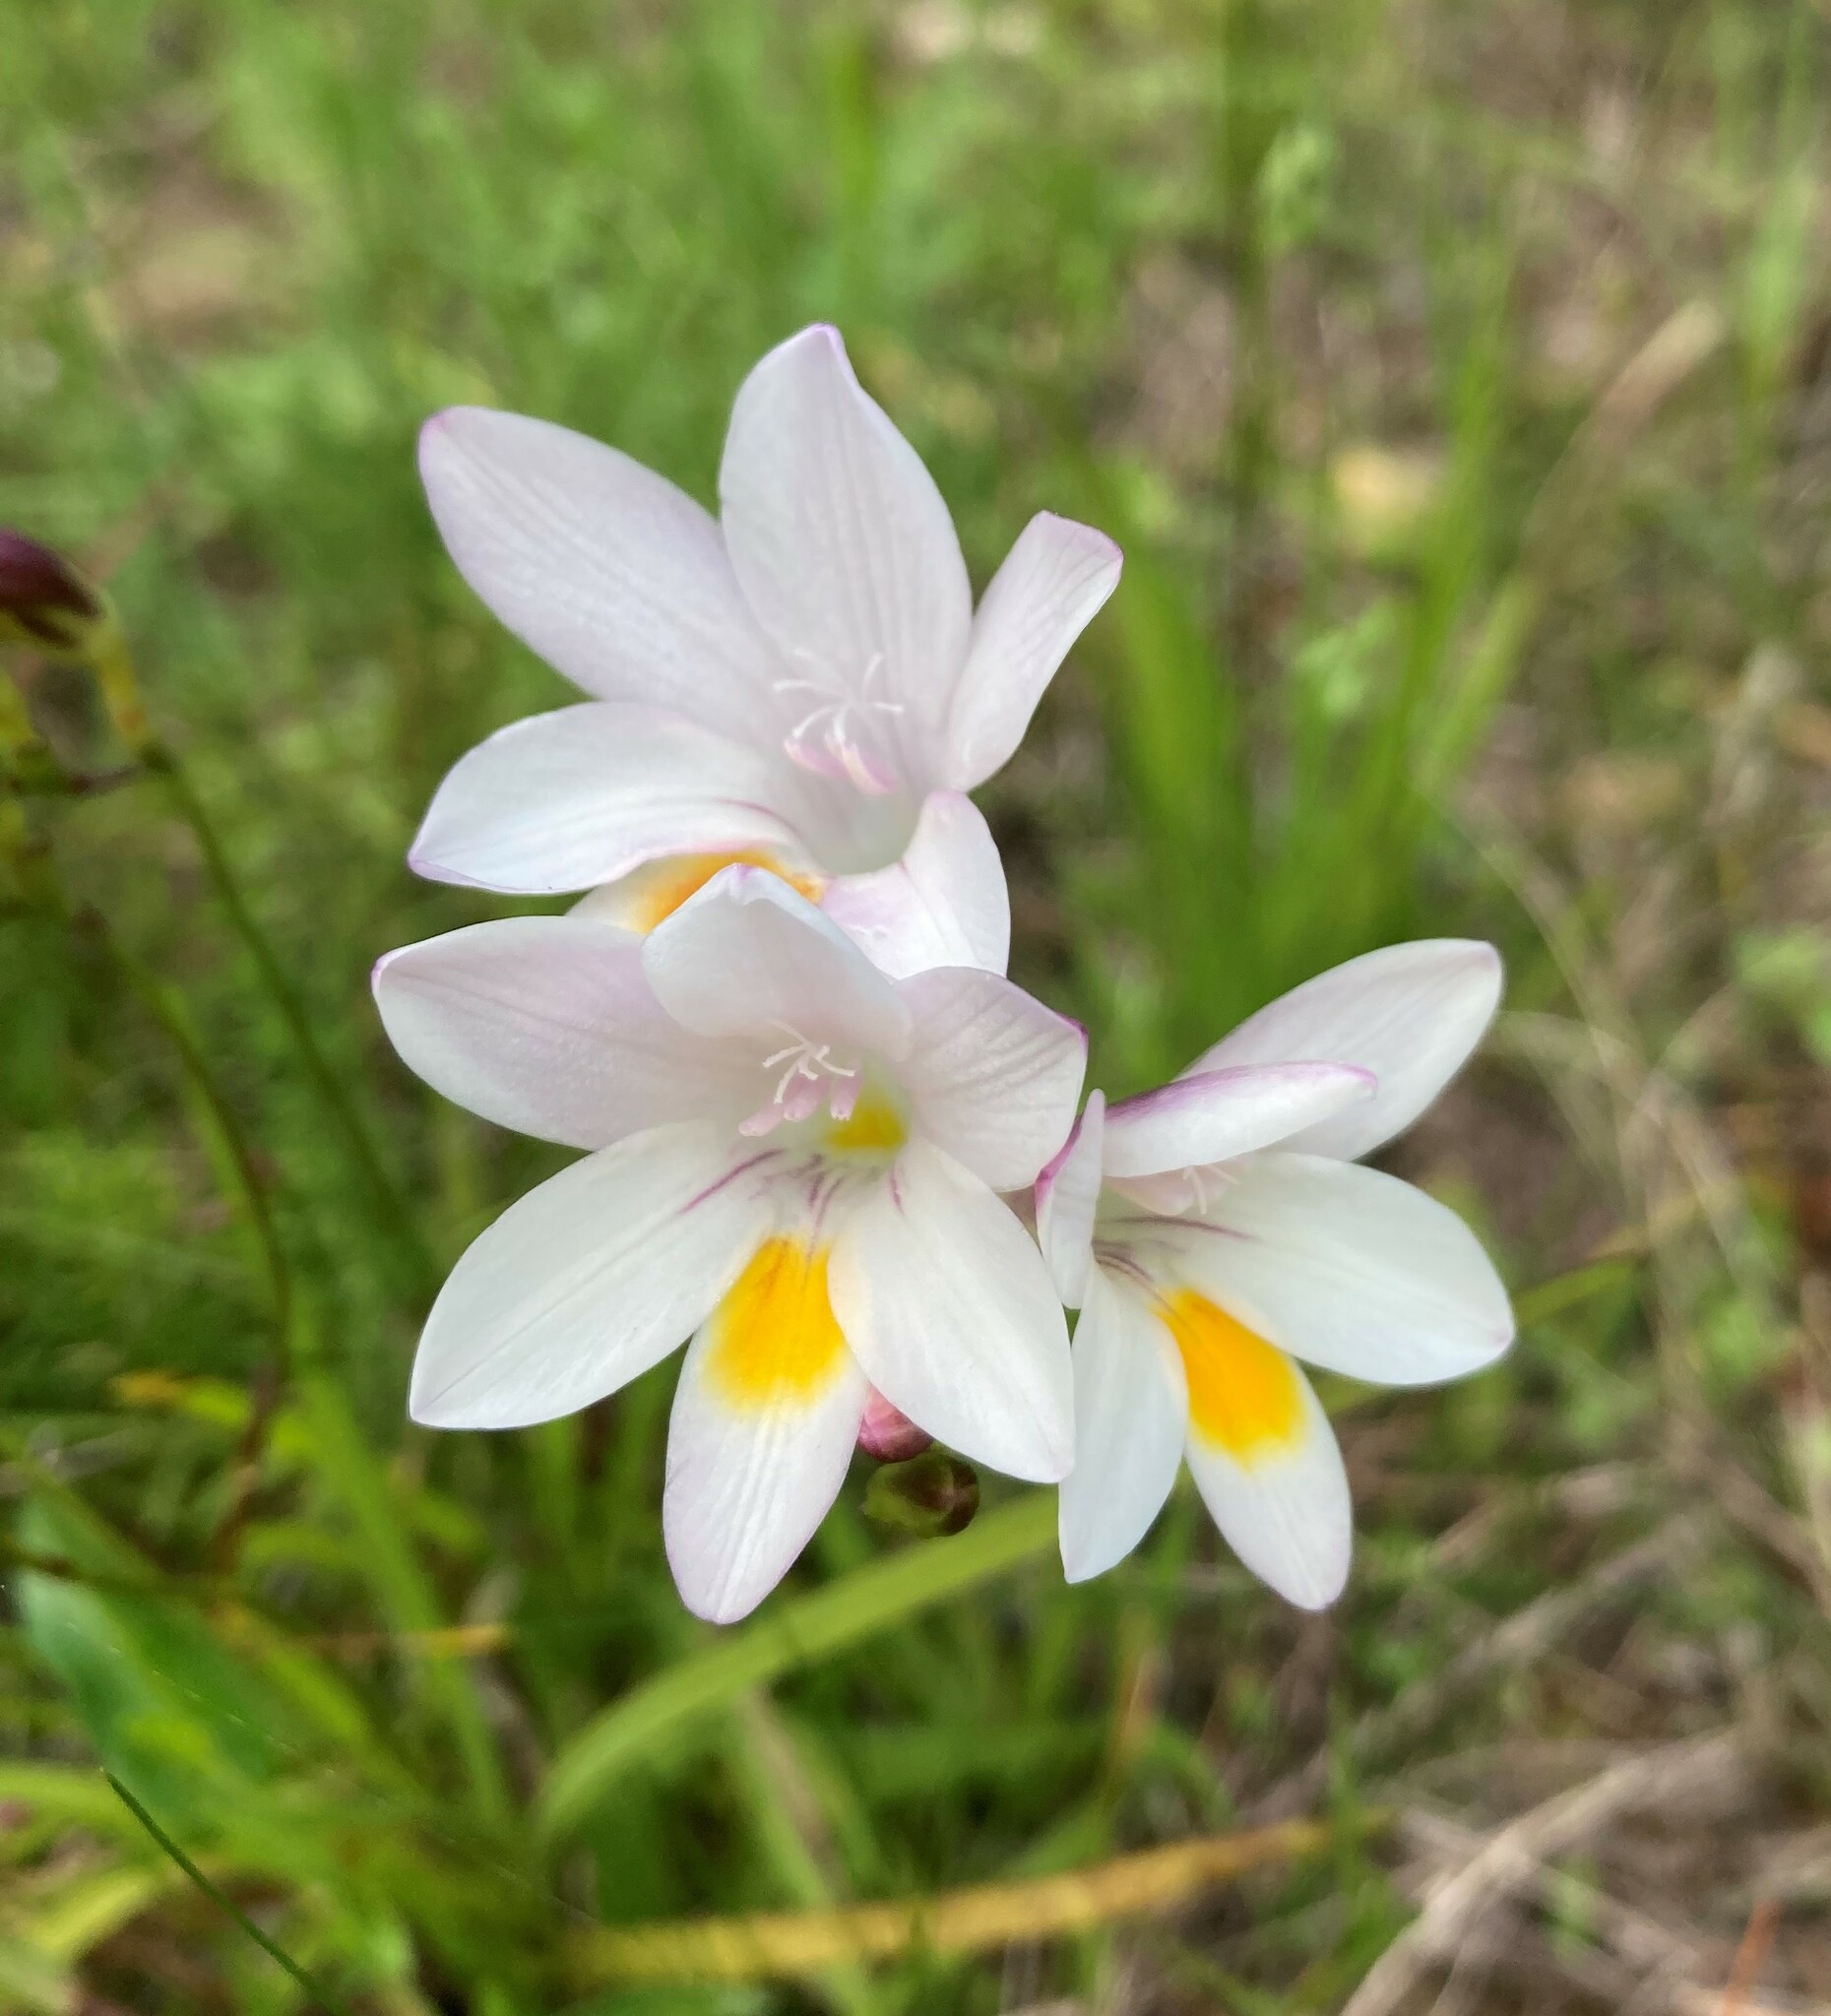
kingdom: Plantae
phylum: Tracheophyta
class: Liliopsida
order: Asparagales
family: Iridaceae
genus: Freesia
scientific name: Freesia leichtlinii
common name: Freesia
